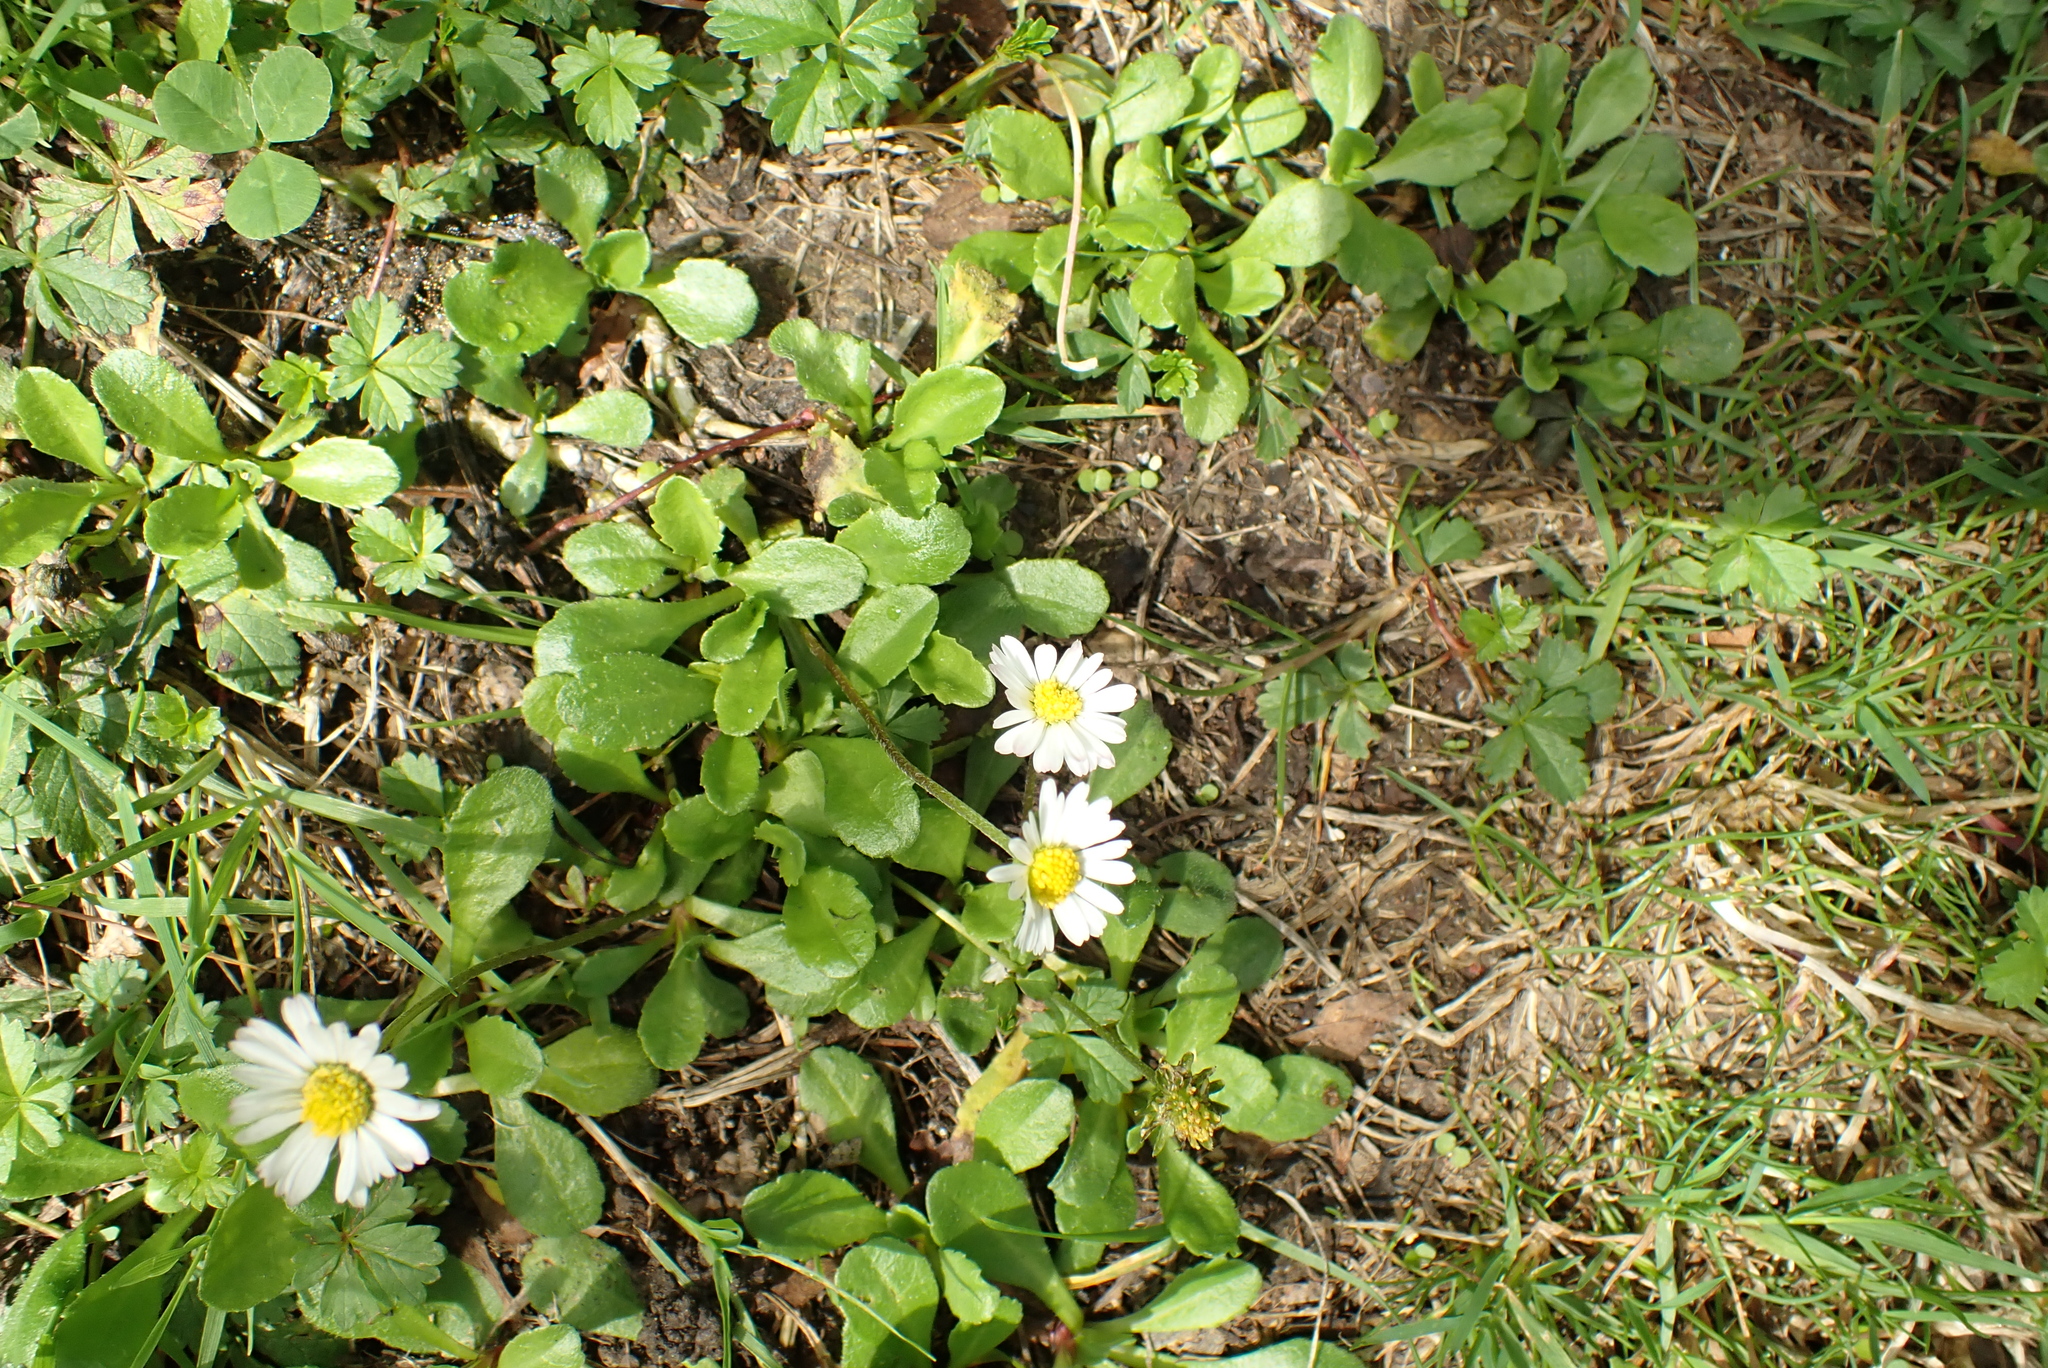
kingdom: Plantae
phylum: Tracheophyta
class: Magnoliopsida
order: Asterales
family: Asteraceae
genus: Bellis
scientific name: Bellis perennis
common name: Lawndaisy
